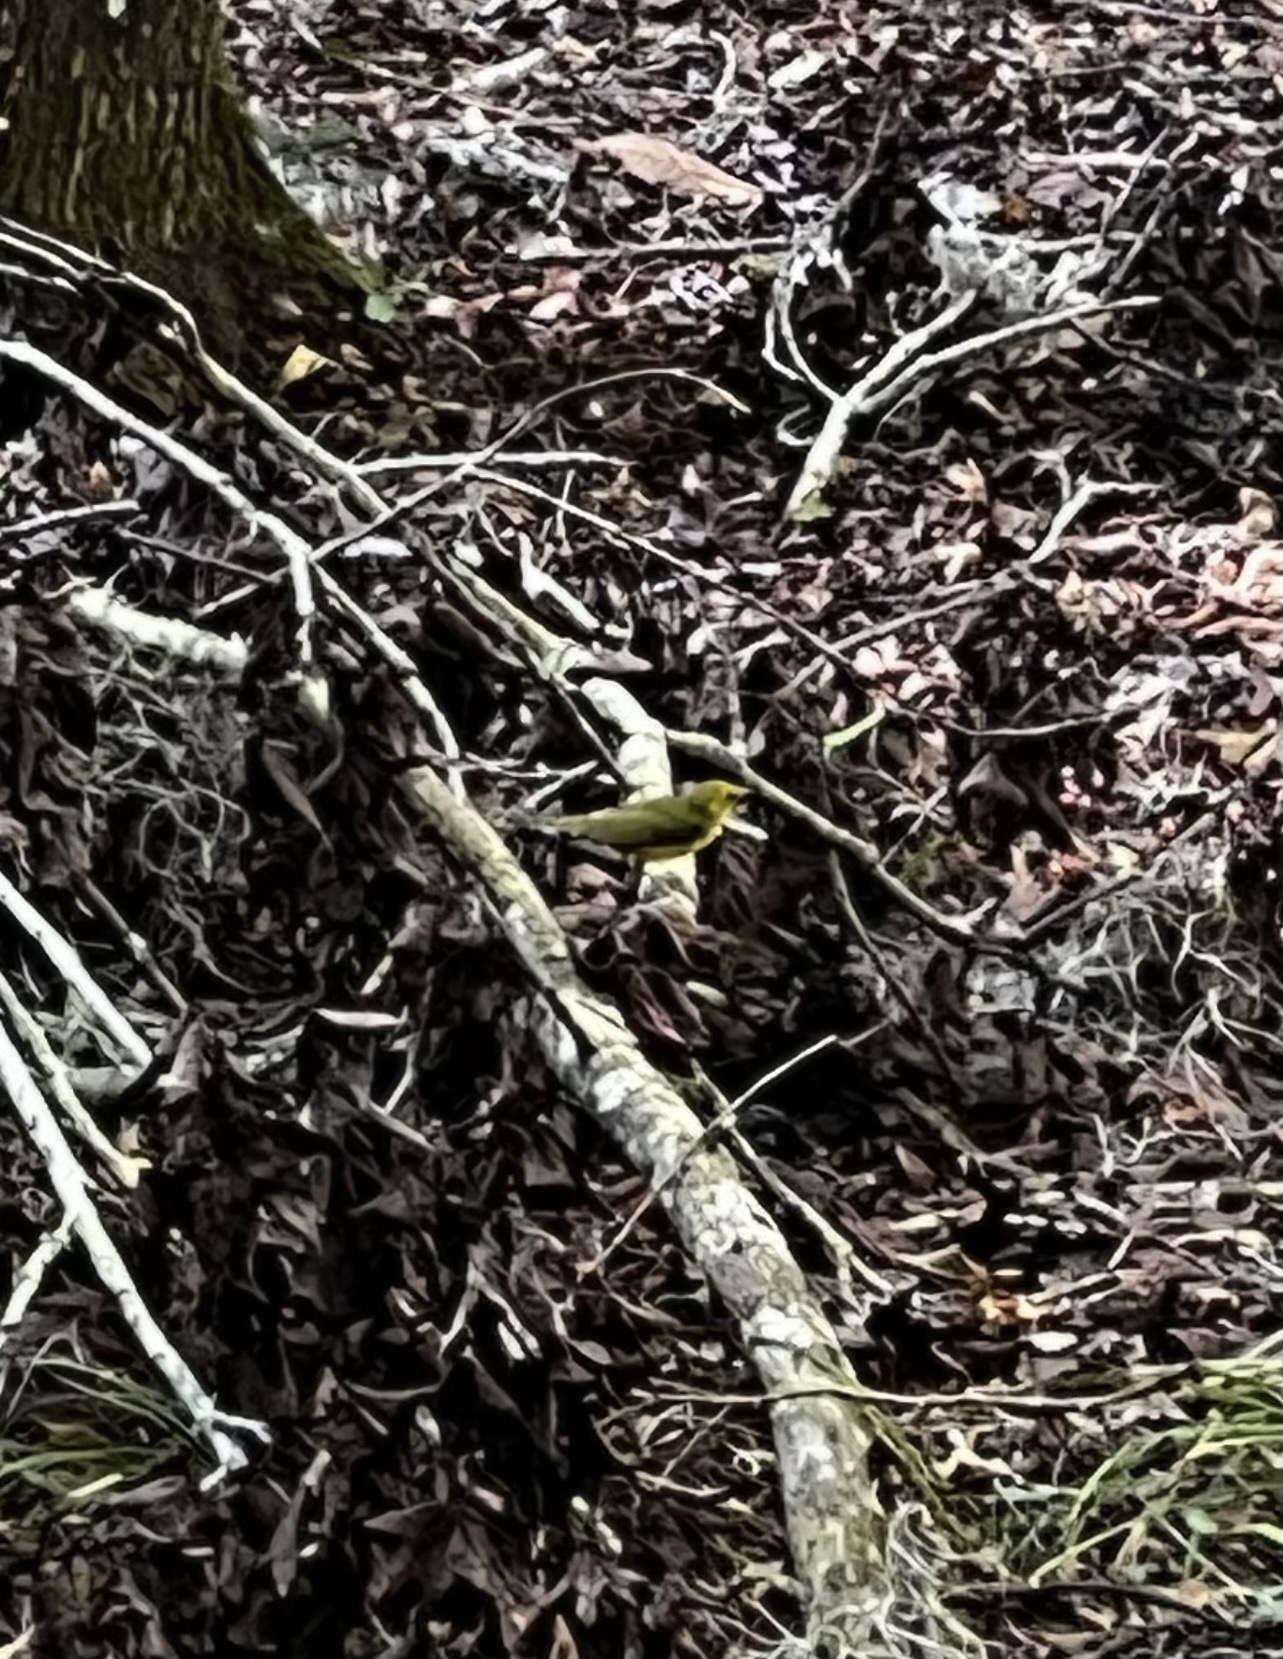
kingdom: Animalia
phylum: Chordata
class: Aves
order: Passeriformes
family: Parulidae
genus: Setophaga
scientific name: Setophaga citrina
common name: Hooded warbler
